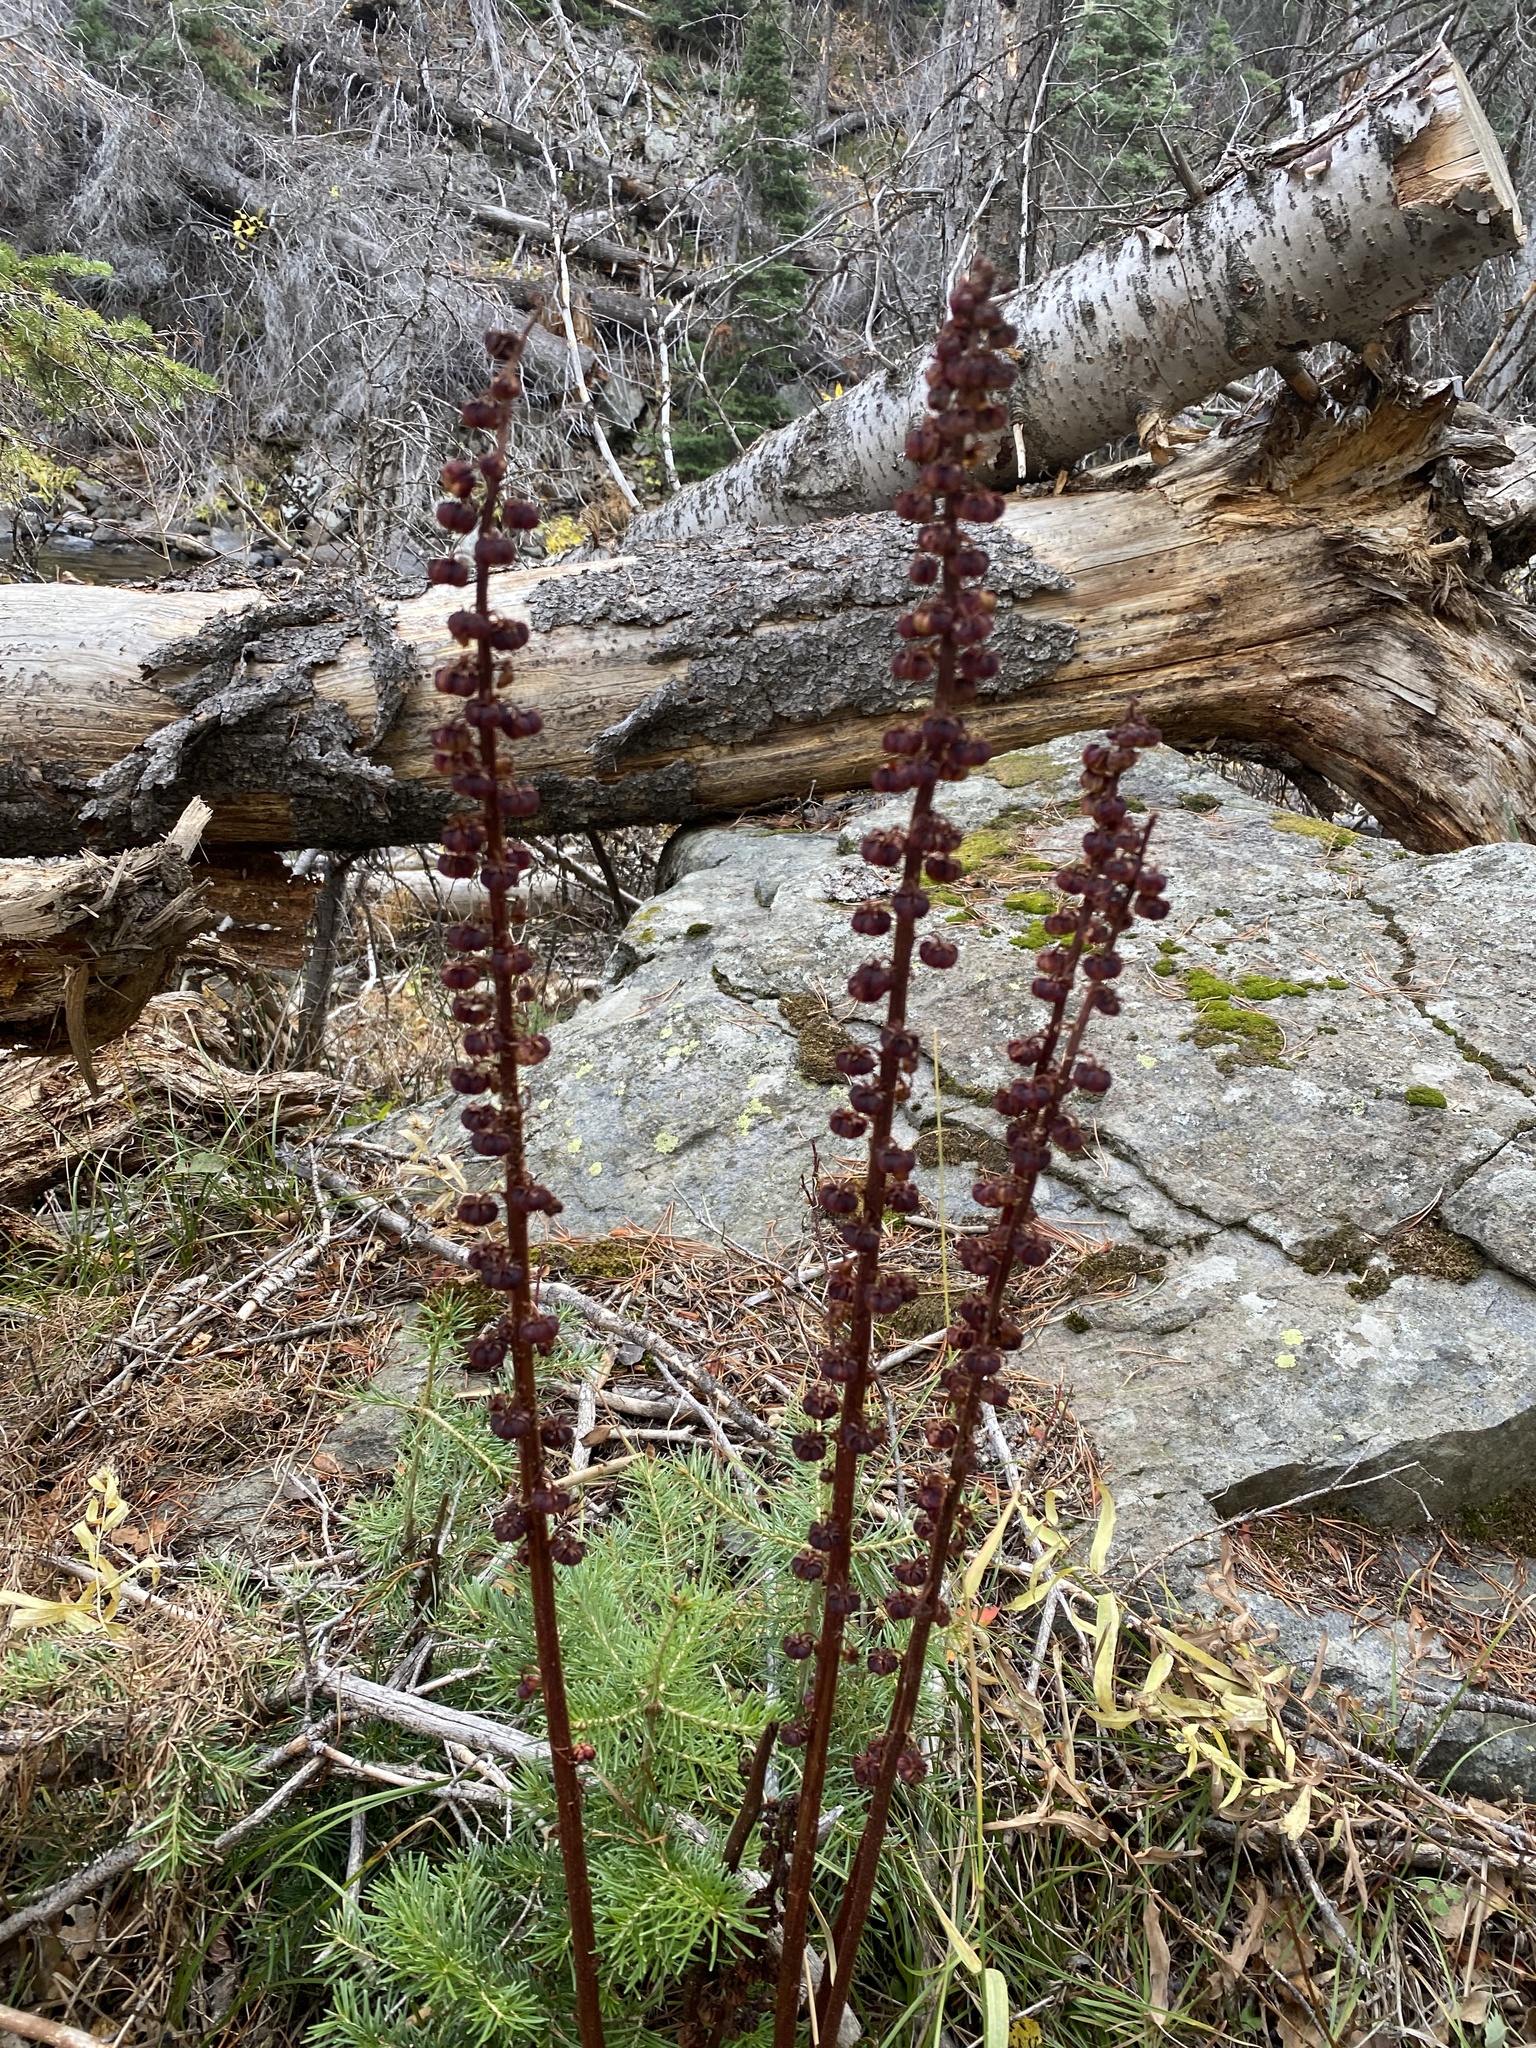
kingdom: Plantae
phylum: Tracheophyta
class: Magnoliopsida
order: Ericales
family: Ericaceae
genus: Pterospora
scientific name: Pterospora andromedea
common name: Giant bird's-nest
